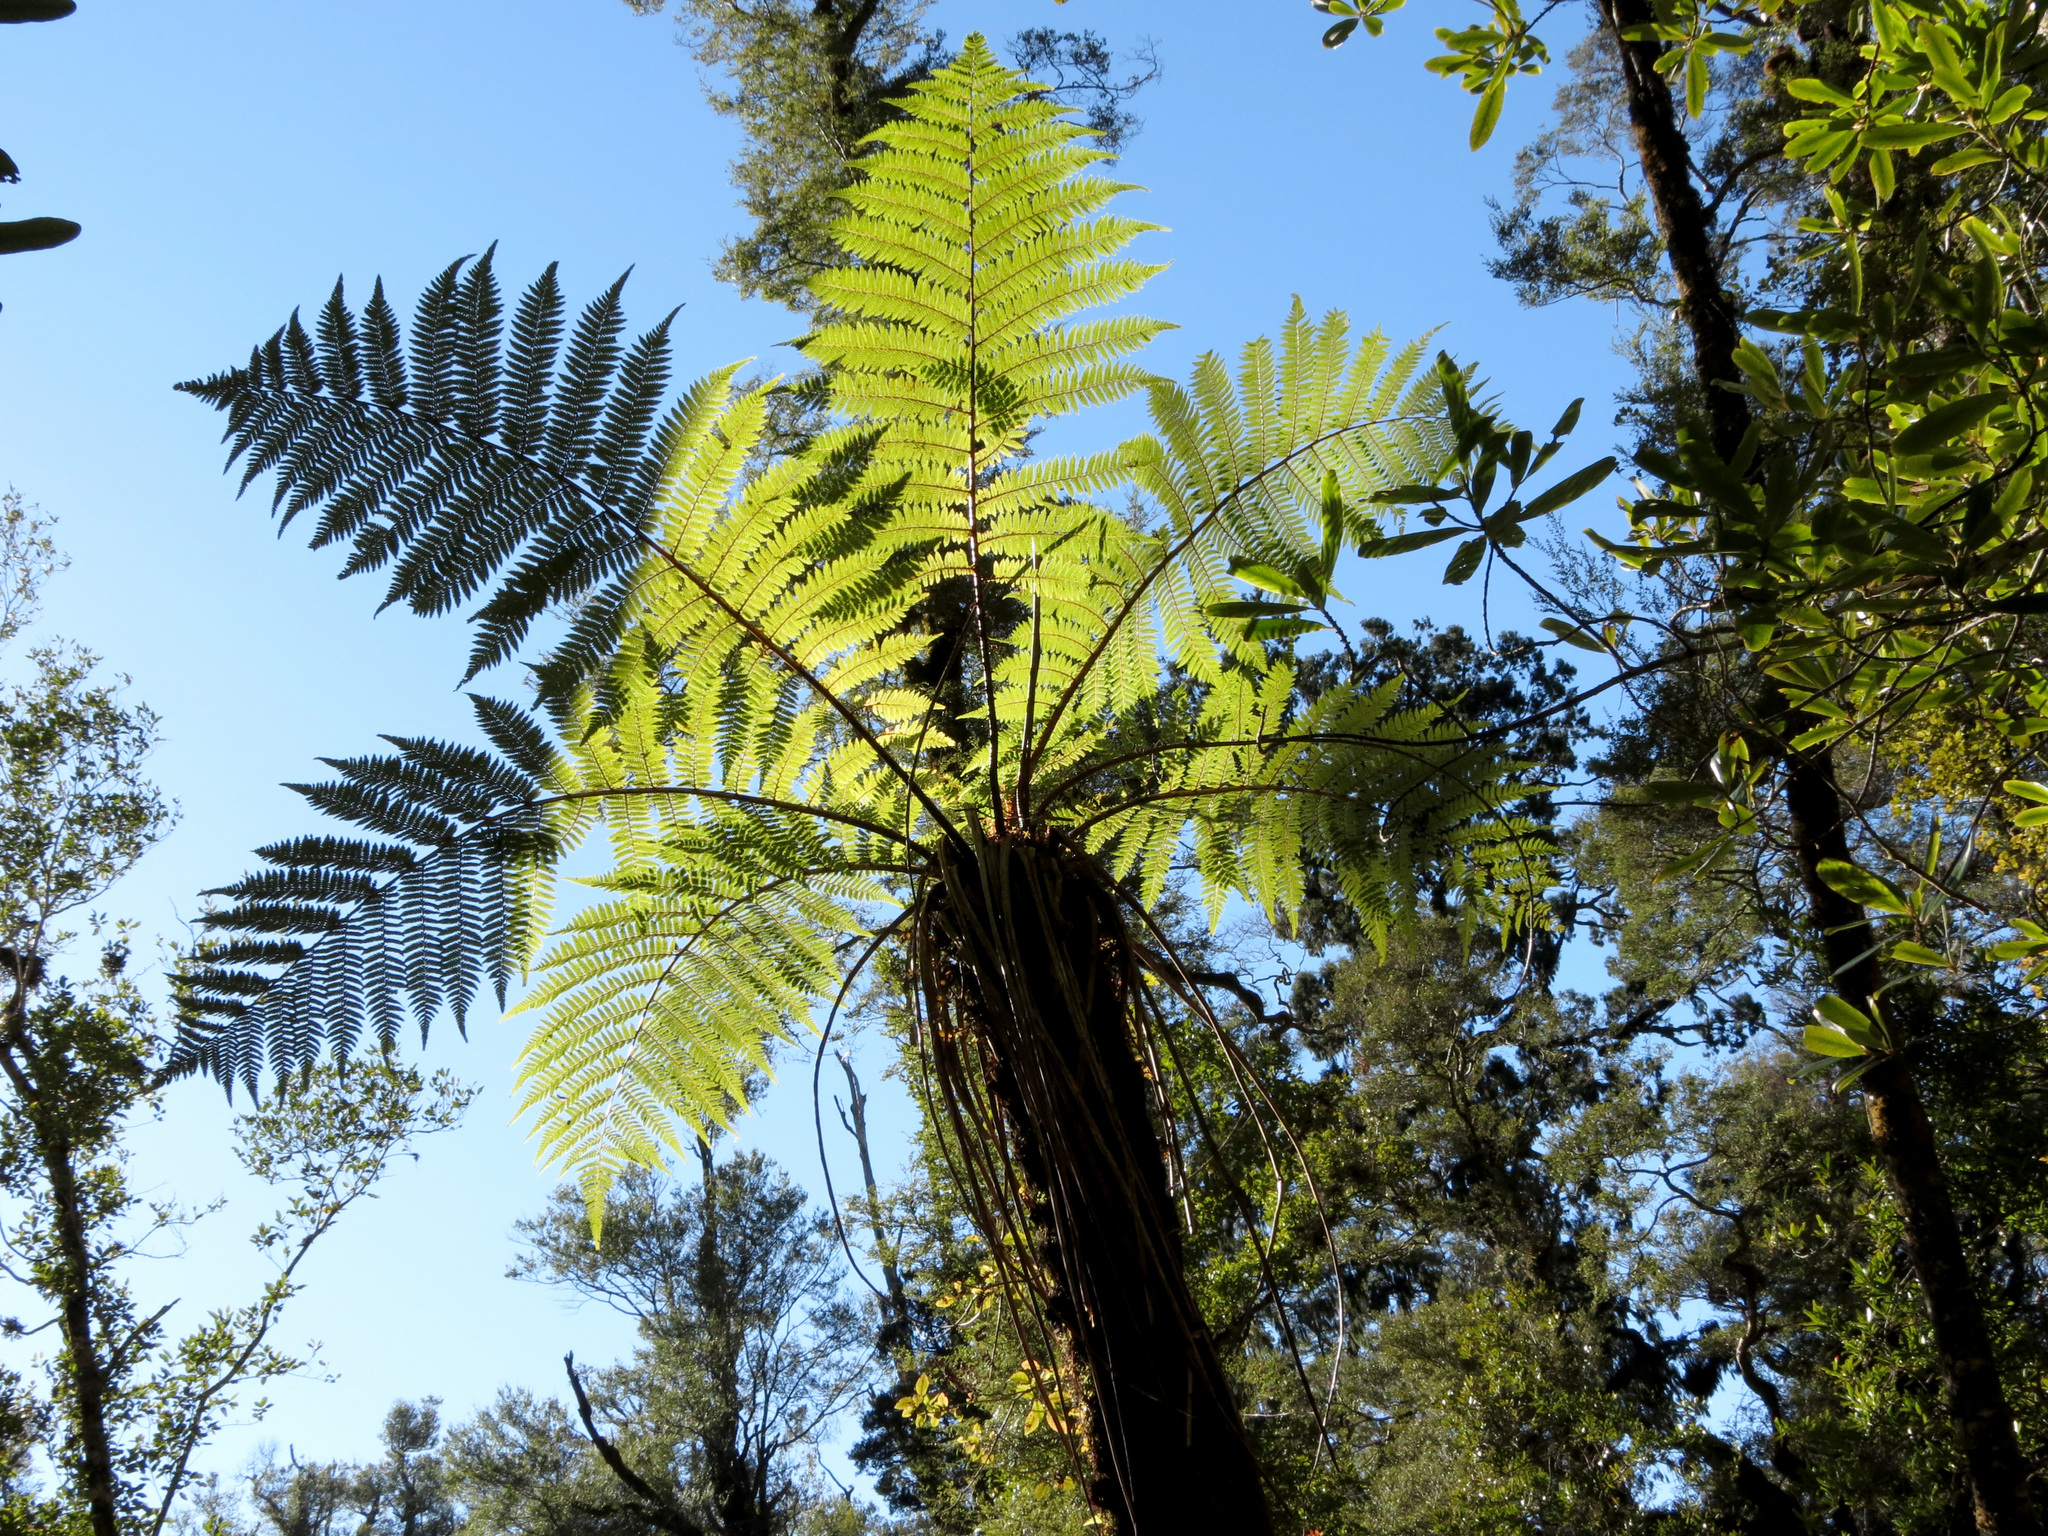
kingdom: Plantae
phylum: Tracheophyta
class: Polypodiopsida
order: Cyatheales
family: Cyatheaceae
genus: Alsophila
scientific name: Alsophila smithii
